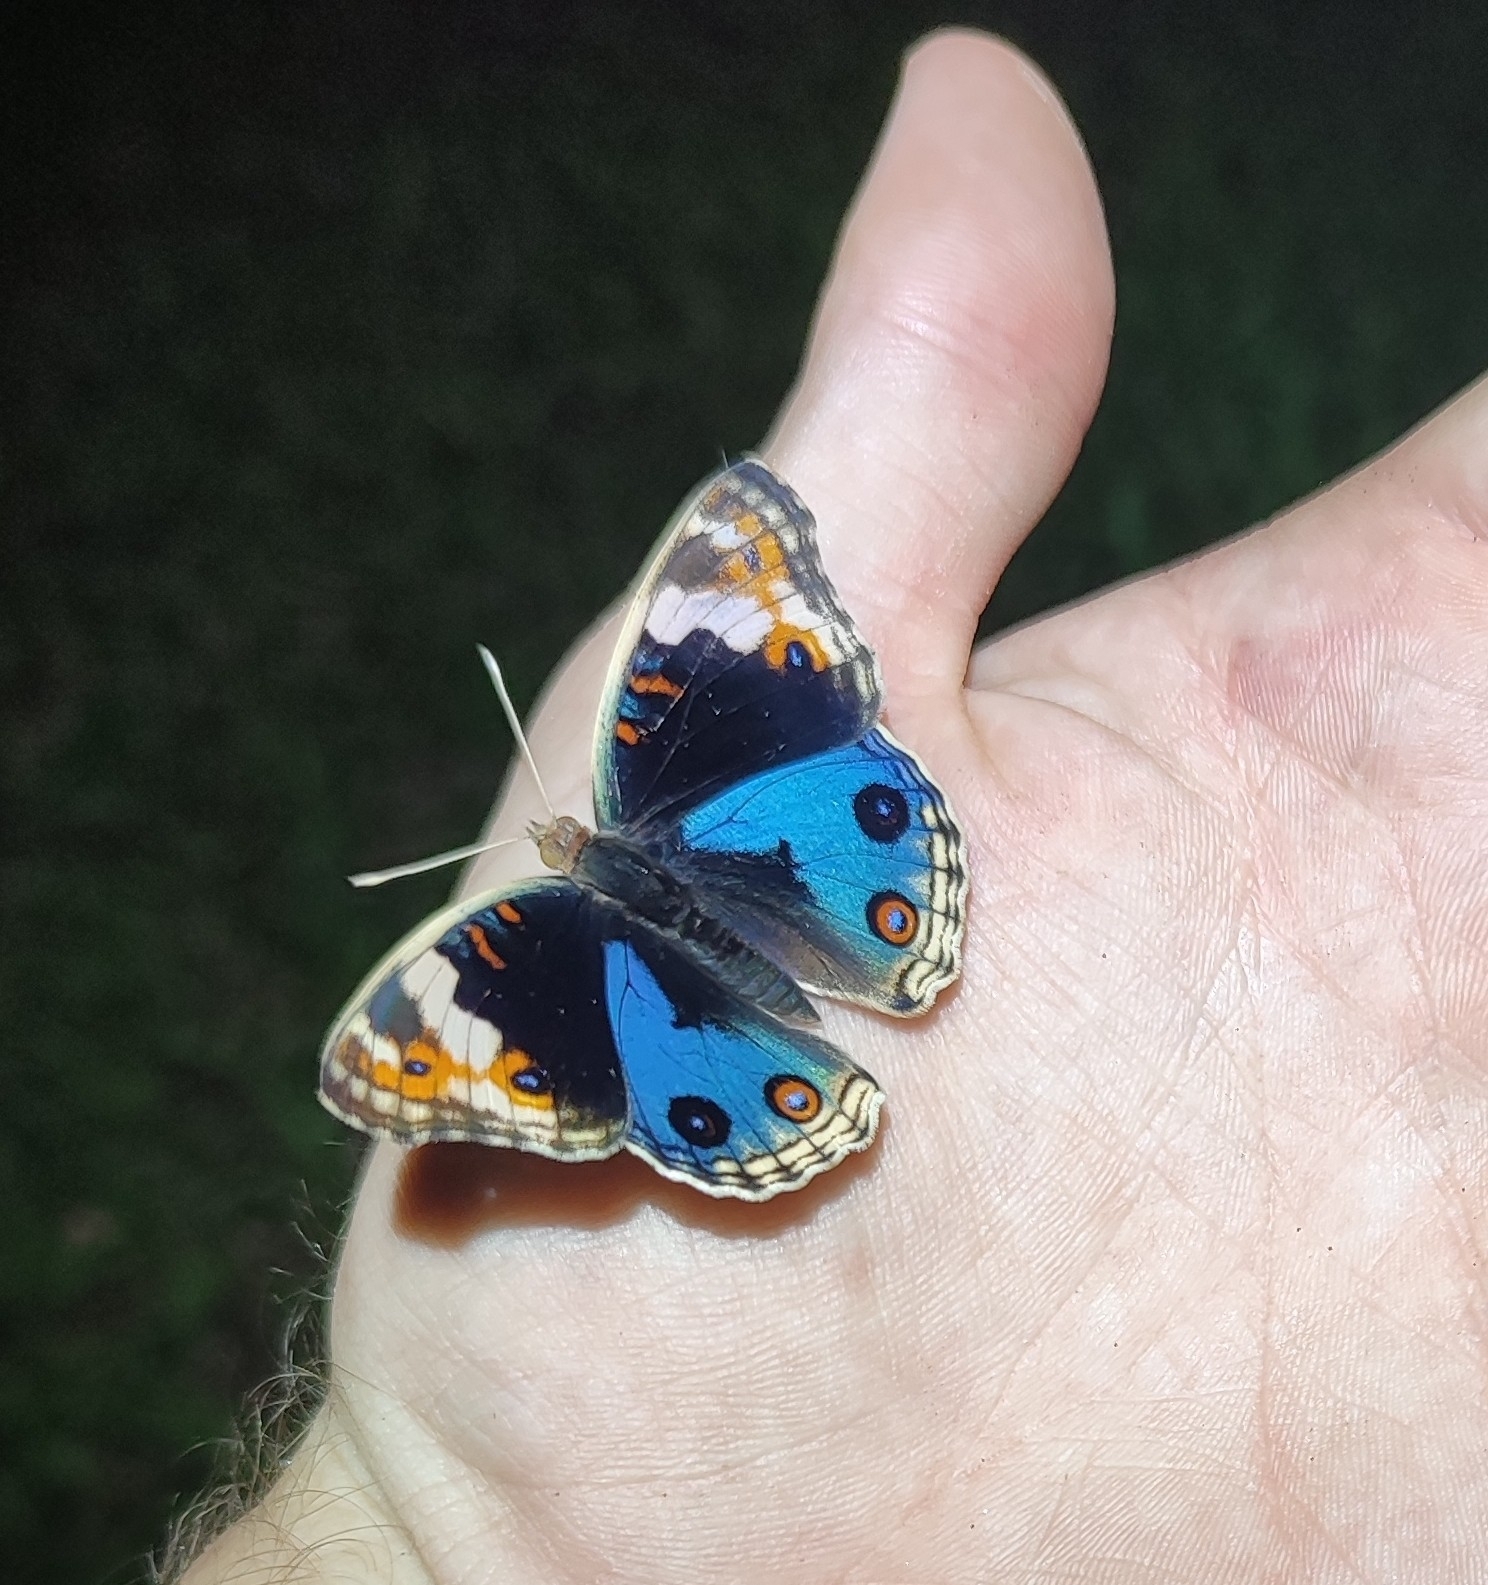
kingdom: Animalia
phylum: Arthropoda
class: Insecta
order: Lepidoptera
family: Nymphalidae
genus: Junonia
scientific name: Junonia orithya
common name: Blue pansy
